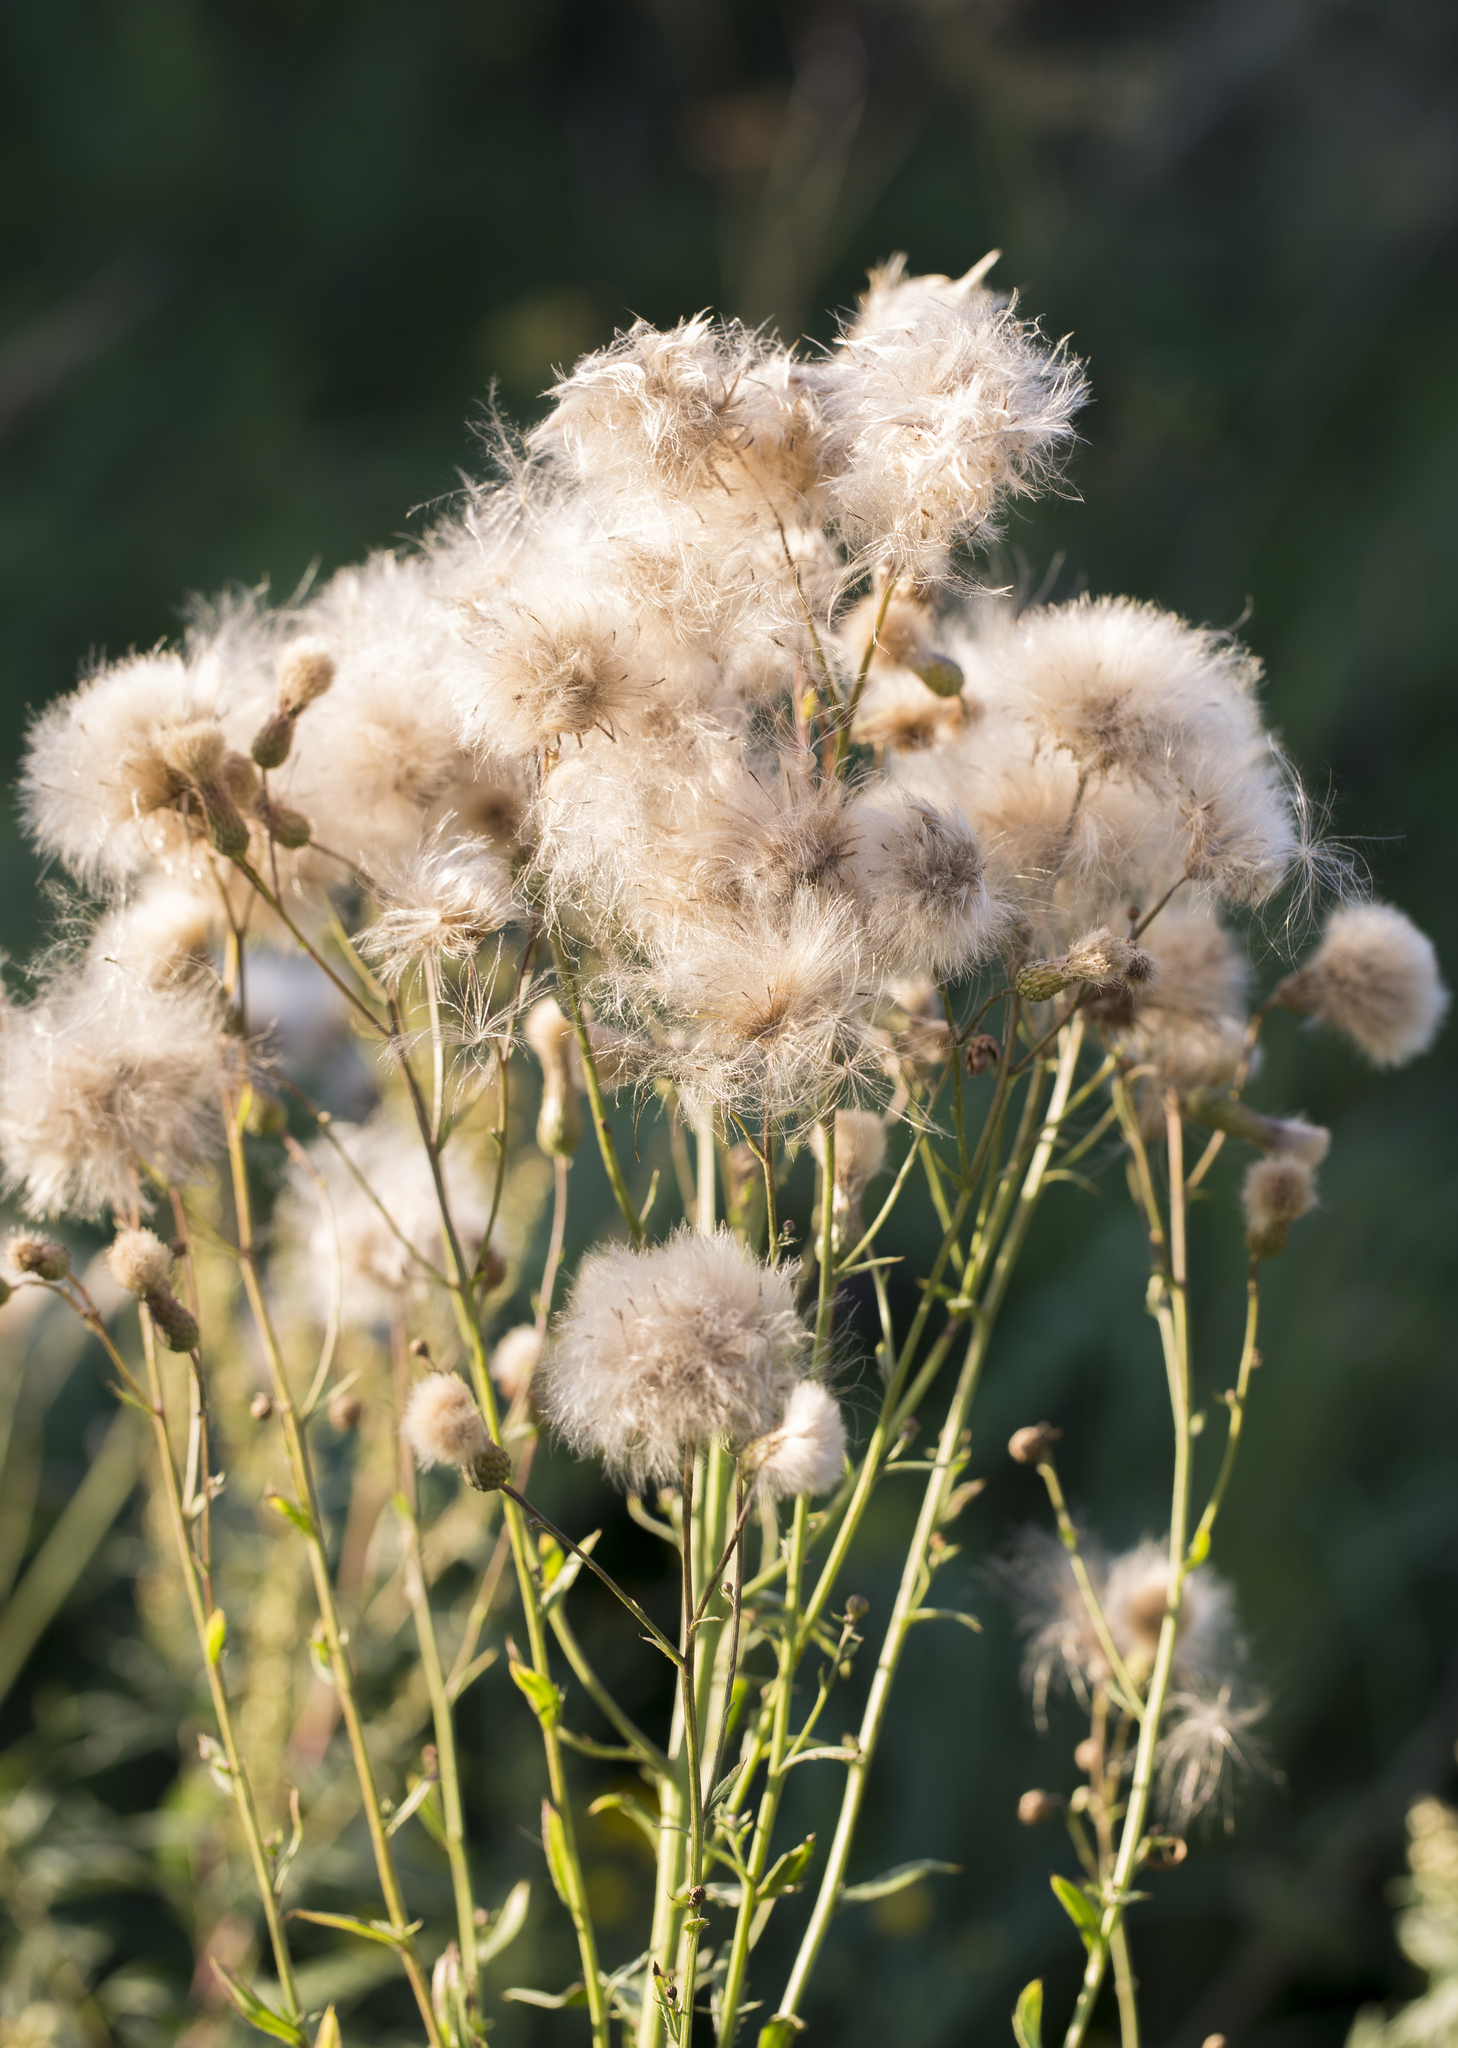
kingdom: Plantae
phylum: Tracheophyta
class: Magnoliopsida
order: Asterales
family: Asteraceae
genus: Cirsium
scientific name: Cirsium arvense
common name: Creeping thistle
